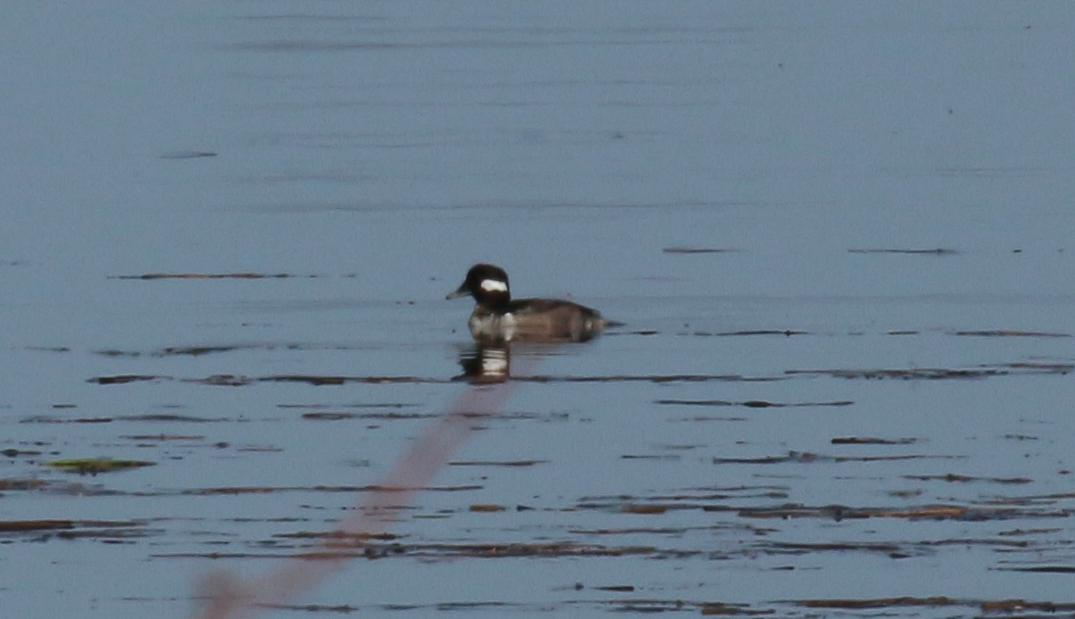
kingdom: Animalia
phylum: Chordata
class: Aves
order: Anseriformes
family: Anatidae
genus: Bucephala
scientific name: Bucephala albeola
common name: Bufflehead
